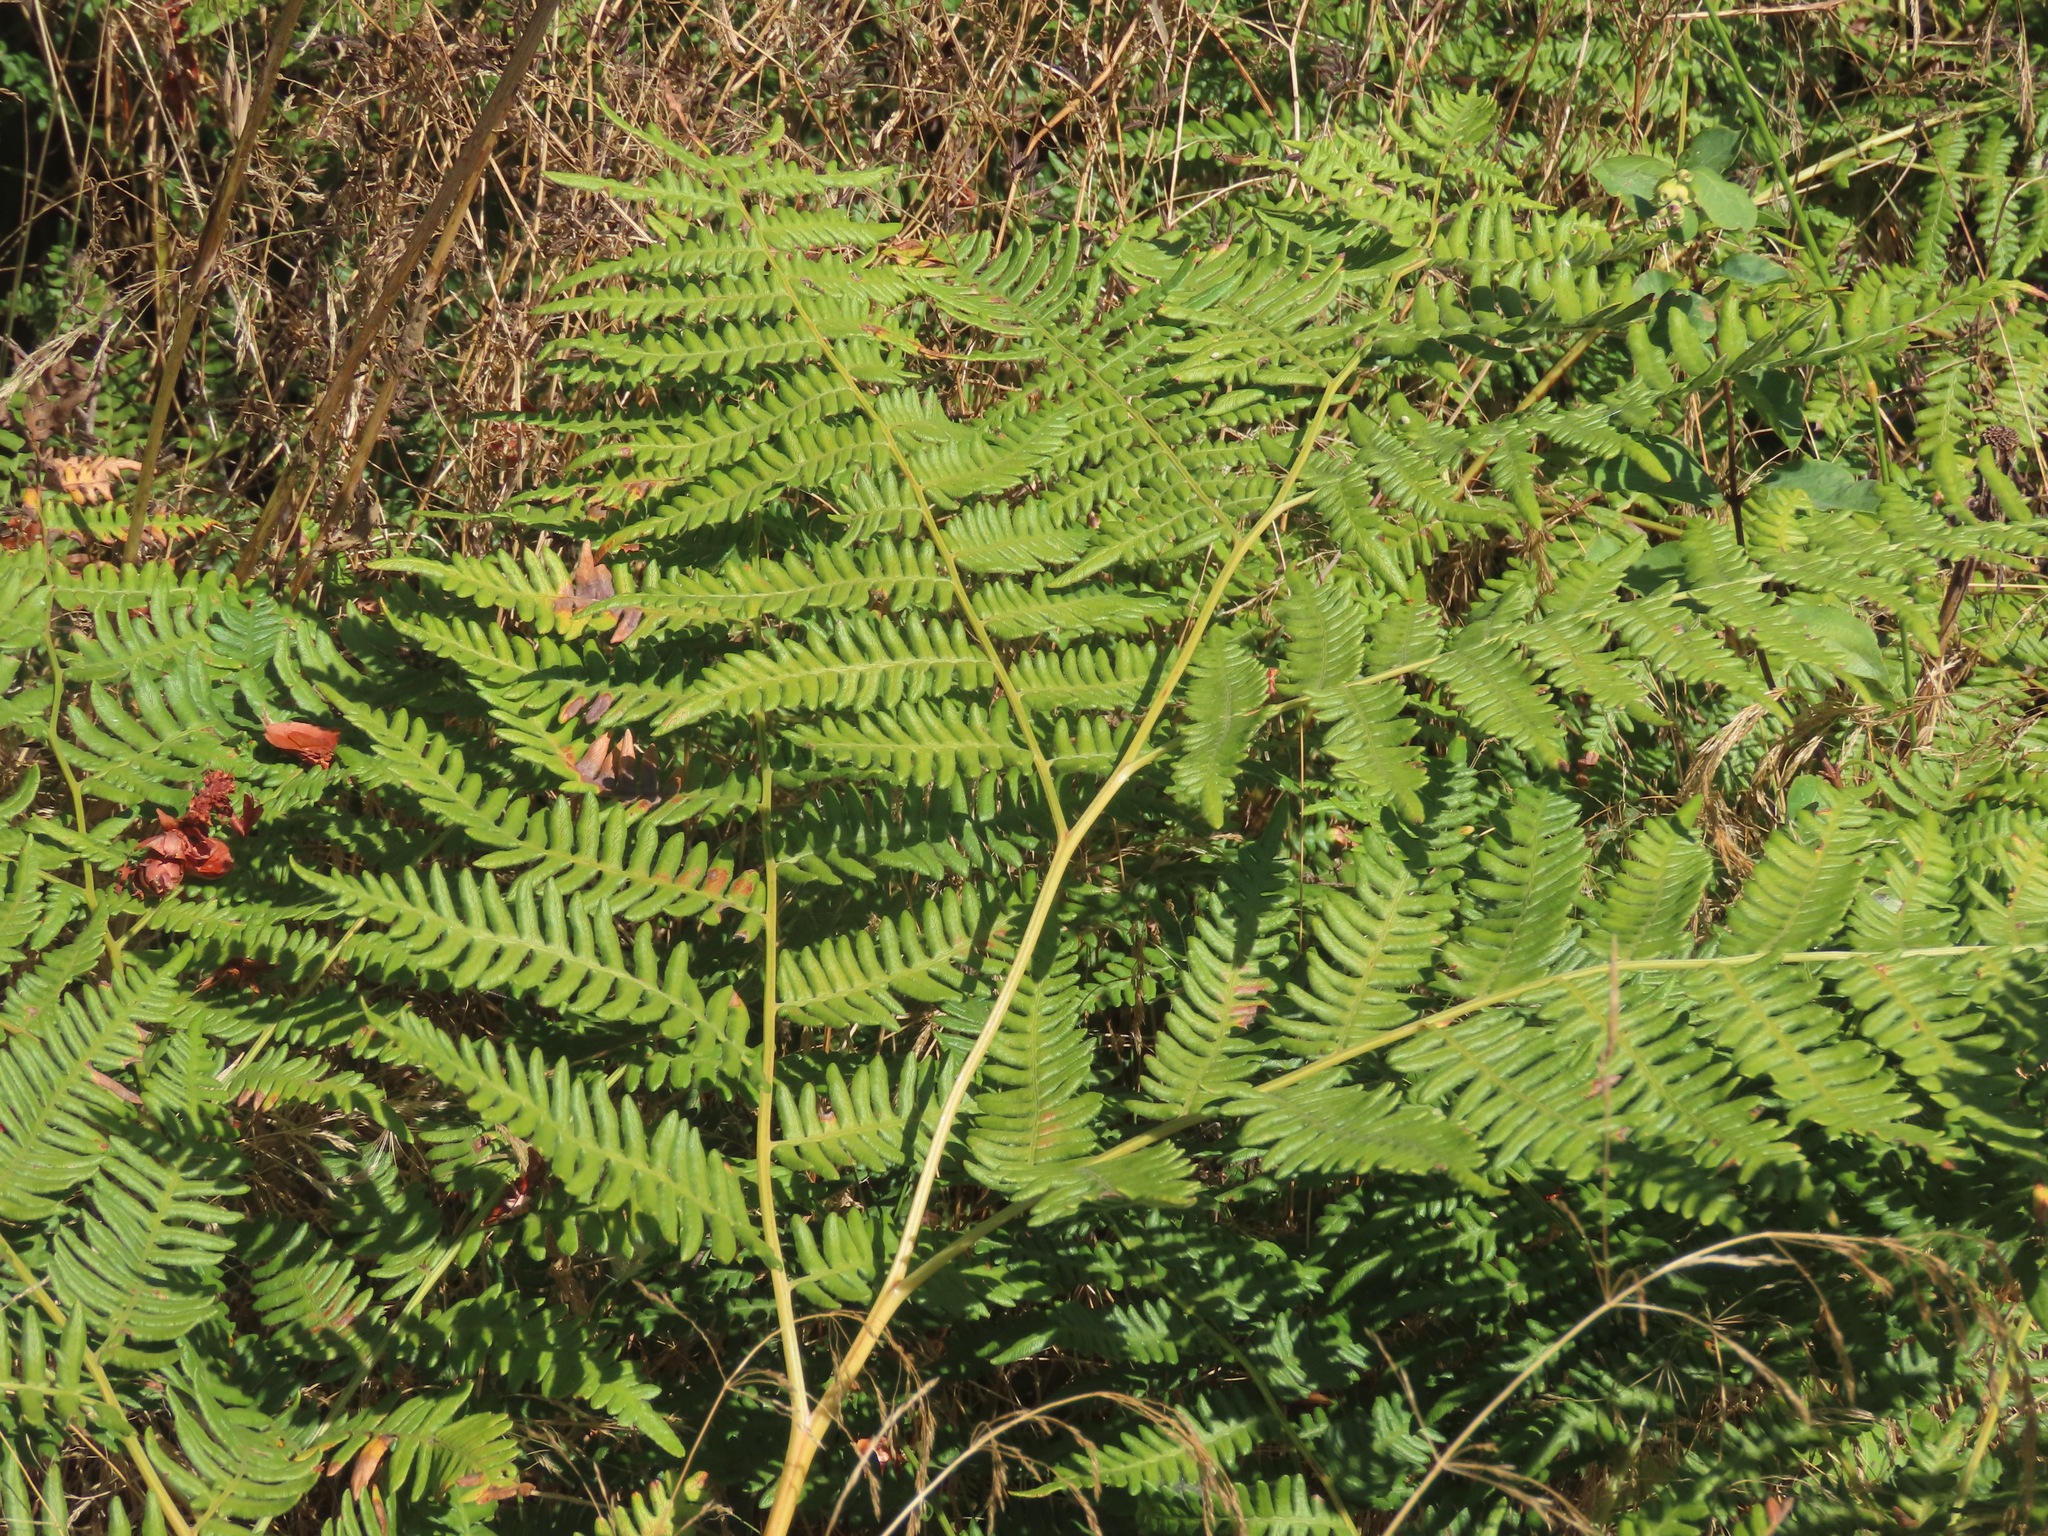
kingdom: Plantae
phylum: Tracheophyta
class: Polypodiopsida
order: Polypodiales
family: Dennstaedtiaceae
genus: Pteridium
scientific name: Pteridium aquilinum
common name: Bracken
